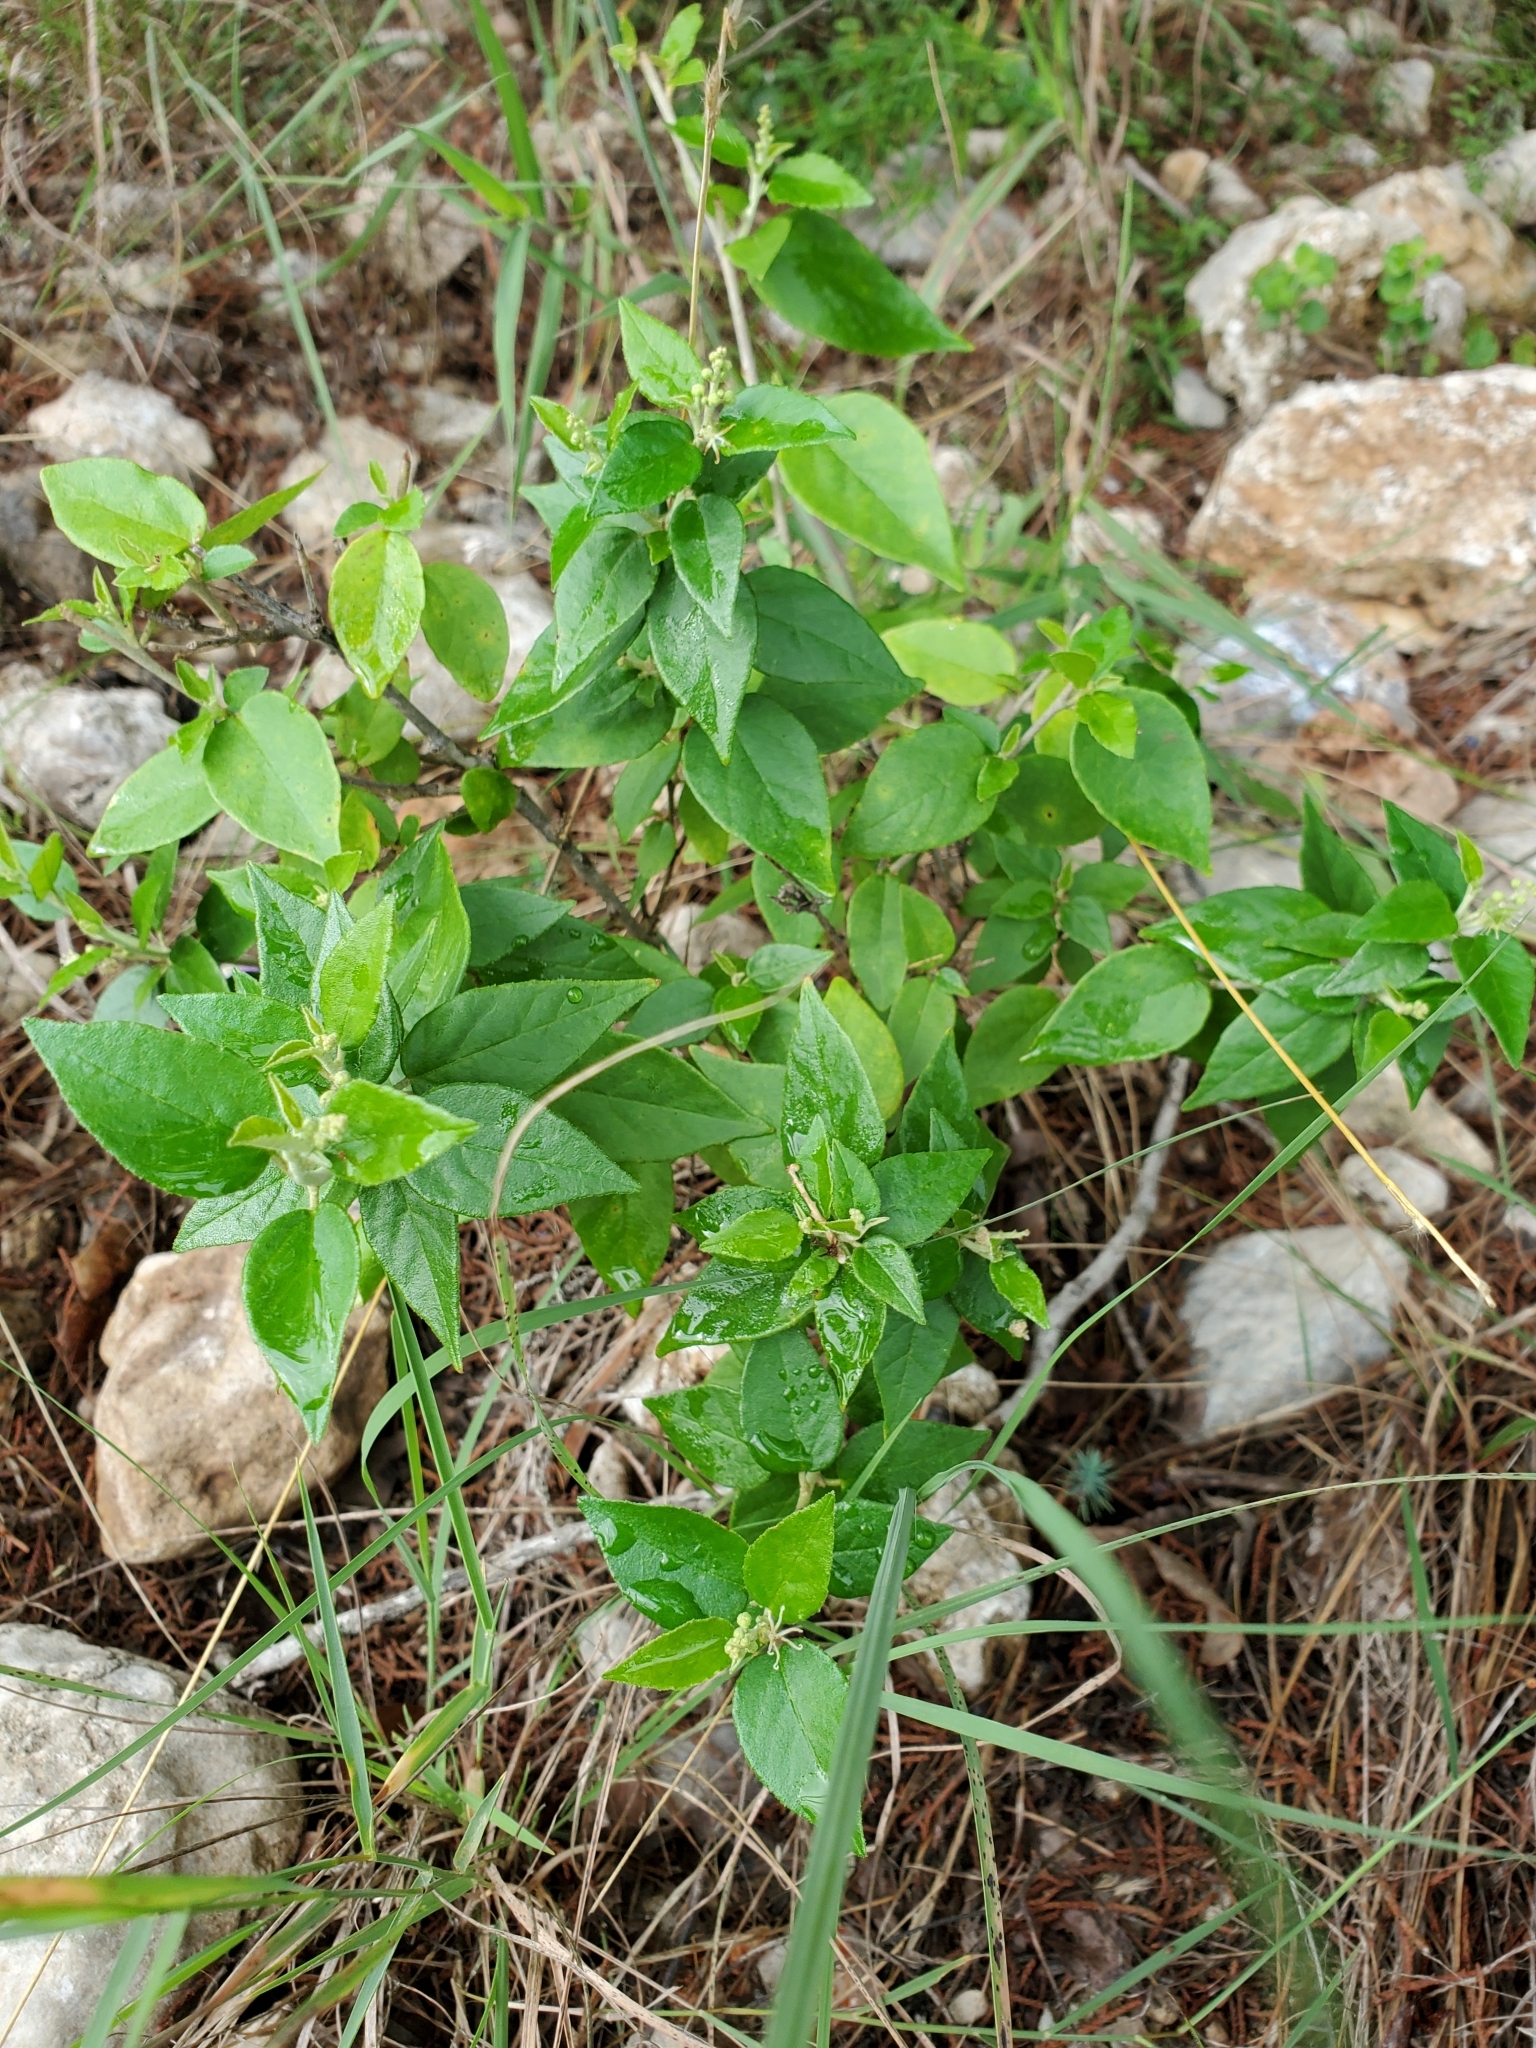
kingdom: Plantae
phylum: Tracheophyta
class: Magnoliopsida
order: Malpighiales
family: Euphorbiaceae
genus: Croton
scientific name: Croton fruticulosus
